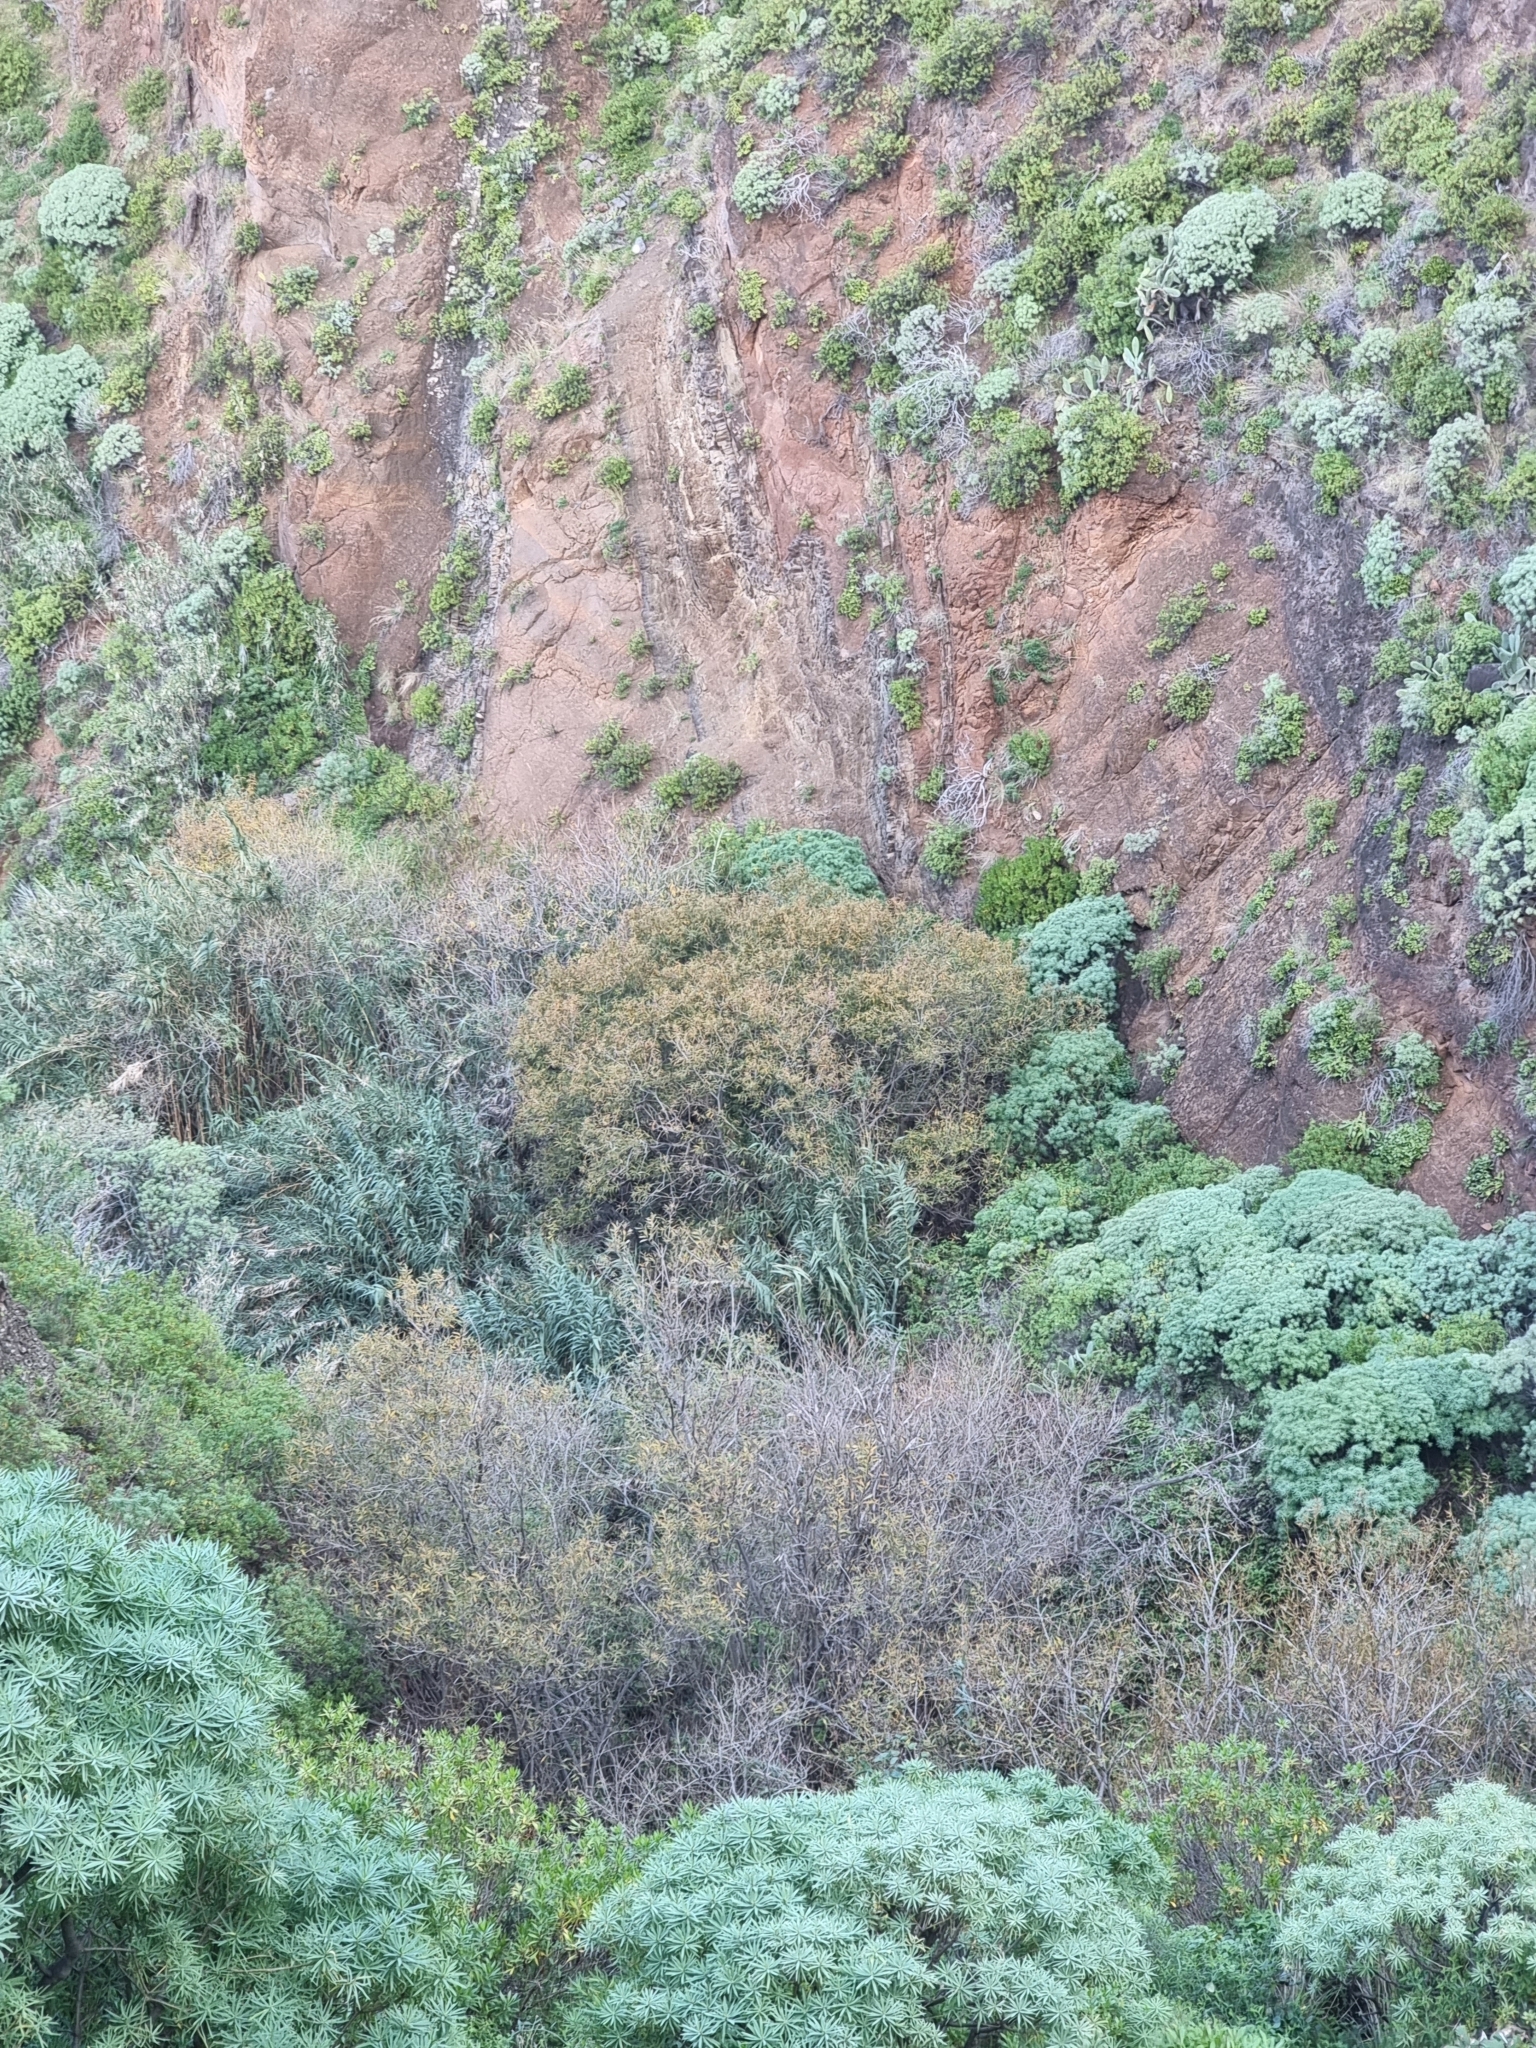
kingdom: Plantae
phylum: Tracheophyta
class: Magnoliopsida
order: Malpighiales
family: Salicaceae
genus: Salix
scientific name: Salix canariensis
